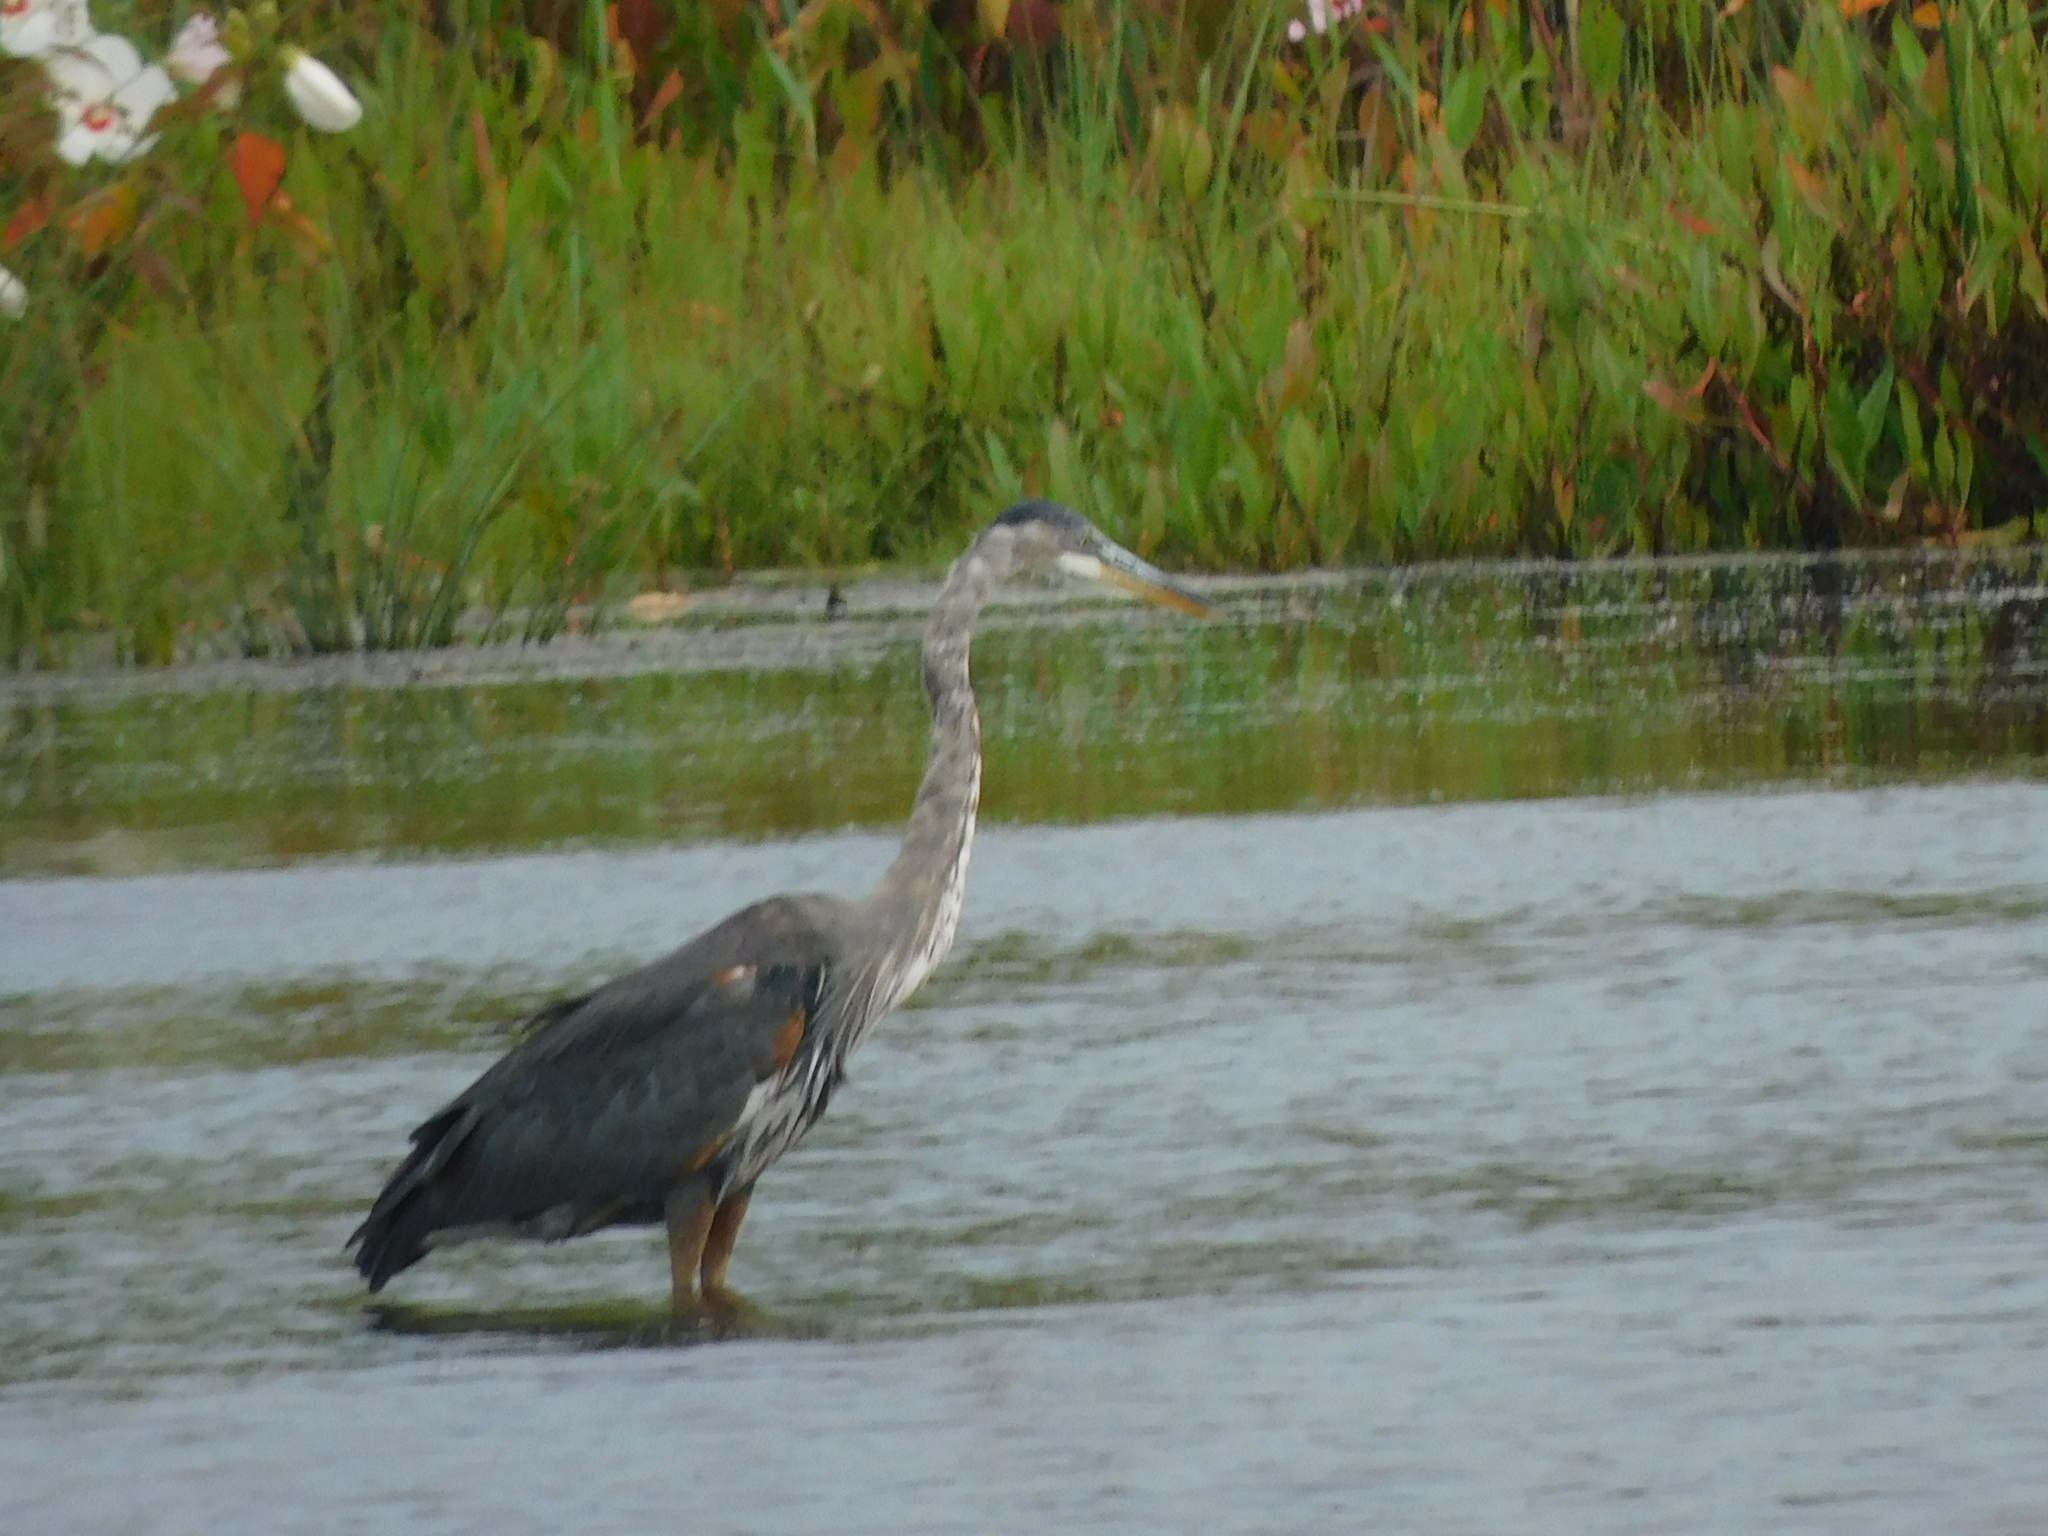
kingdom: Animalia
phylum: Chordata
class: Aves
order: Pelecaniformes
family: Ardeidae
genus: Ardea
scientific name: Ardea herodias
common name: Great blue heron
